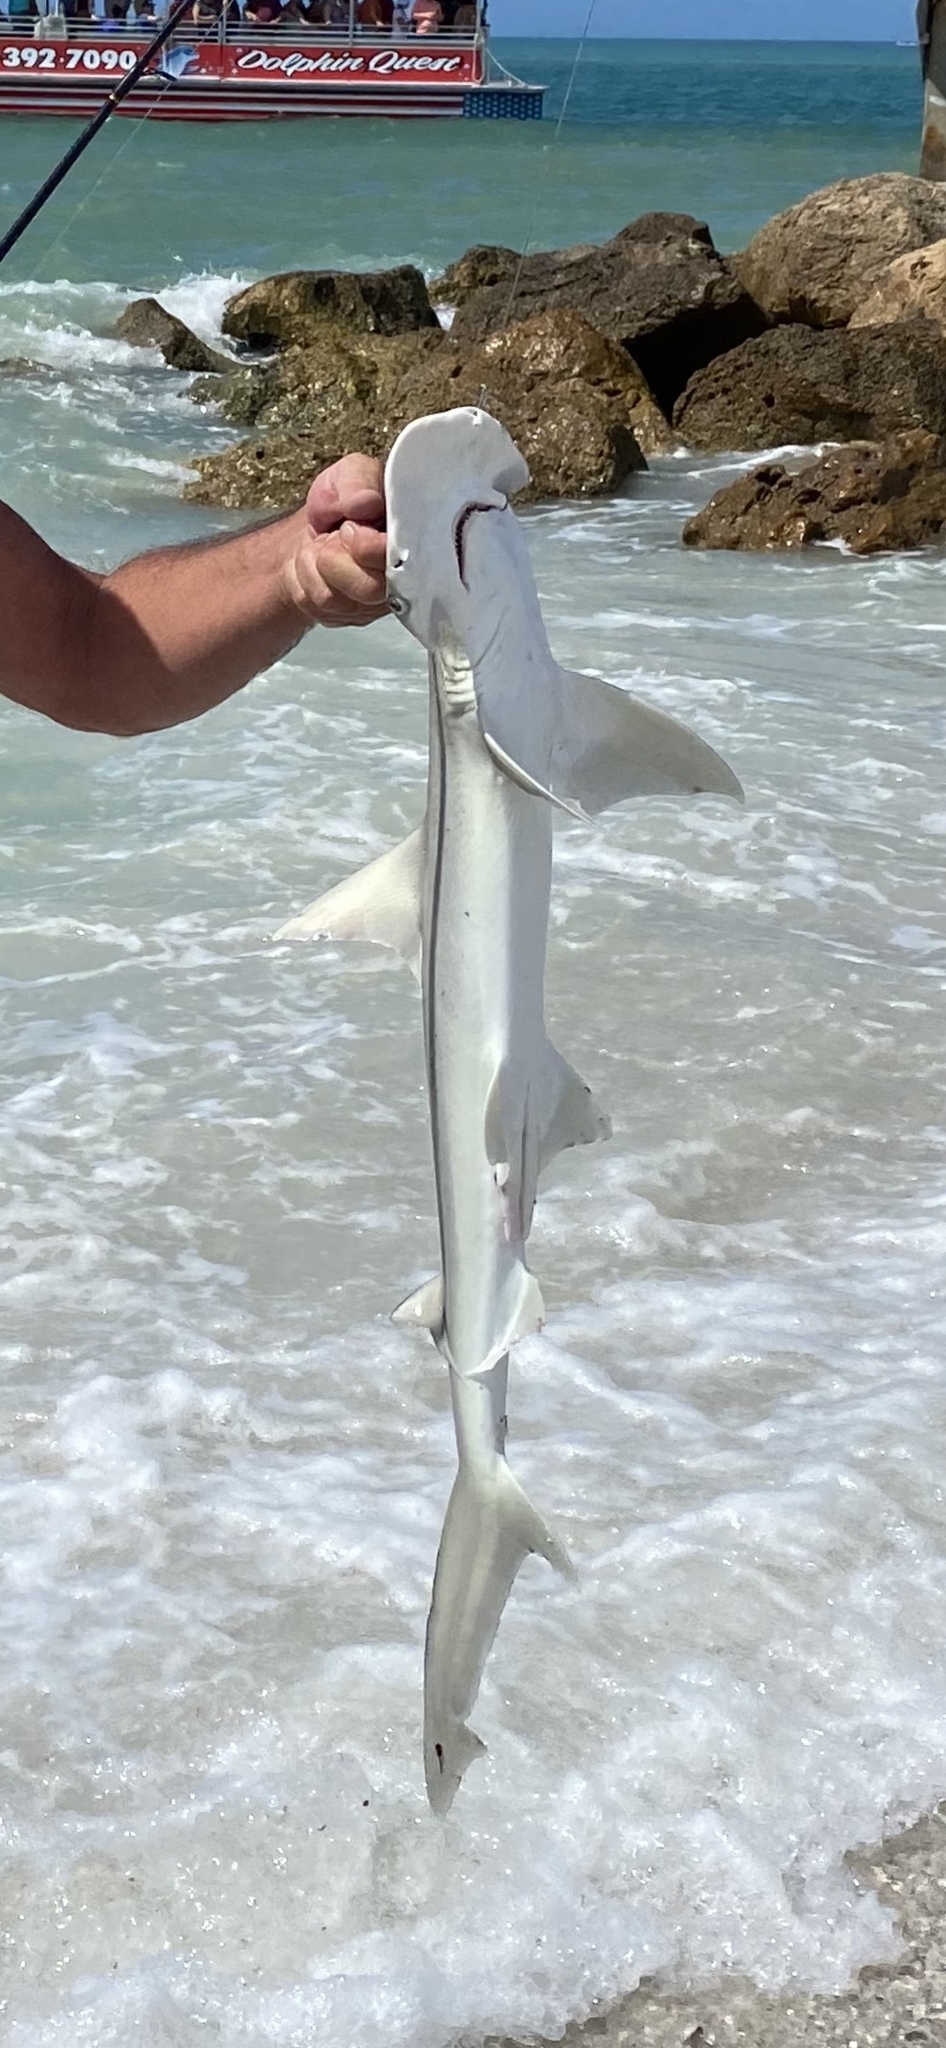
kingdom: Animalia
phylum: Chordata
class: Elasmobranchii
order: Carcharhiniformes
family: Sphyrnidae
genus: Sphyrna
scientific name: Sphyrna tiburo
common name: Bonnethead
